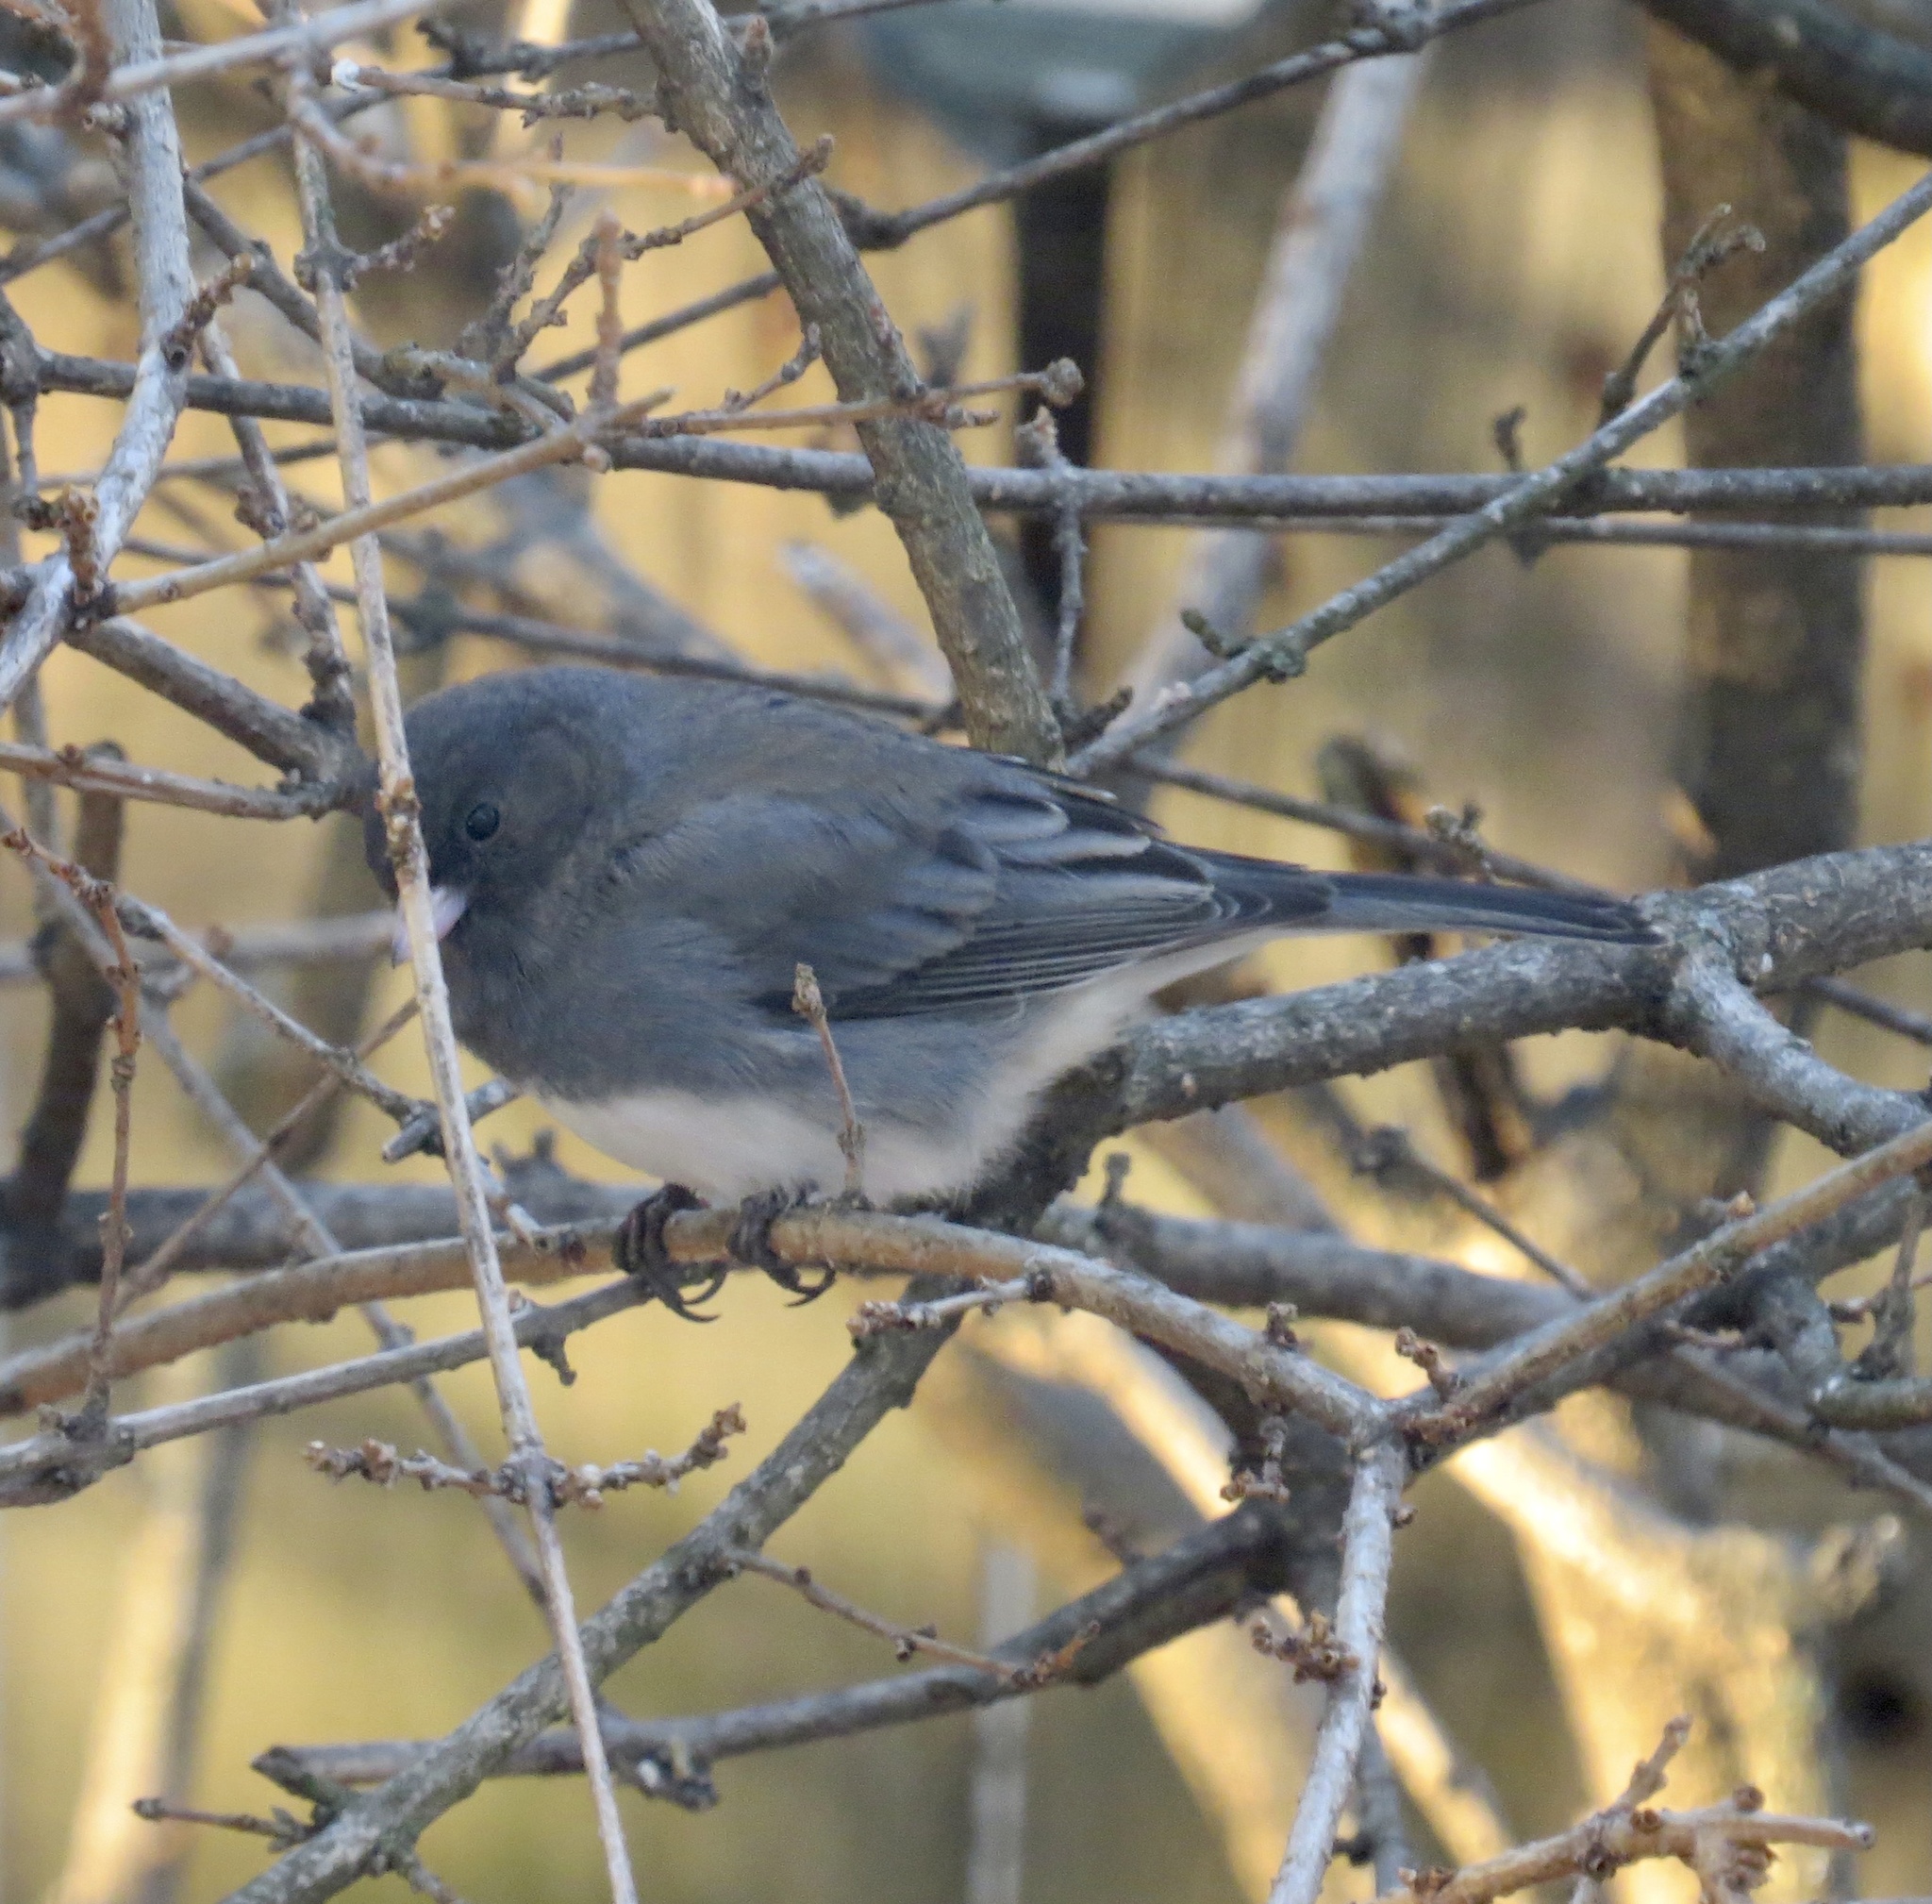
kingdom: Animalia
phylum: Chordata
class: Aves
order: Passeriformes
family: Passerellidae
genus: Junco
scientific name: Junco hyemalis
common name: Dark-eyed junco
